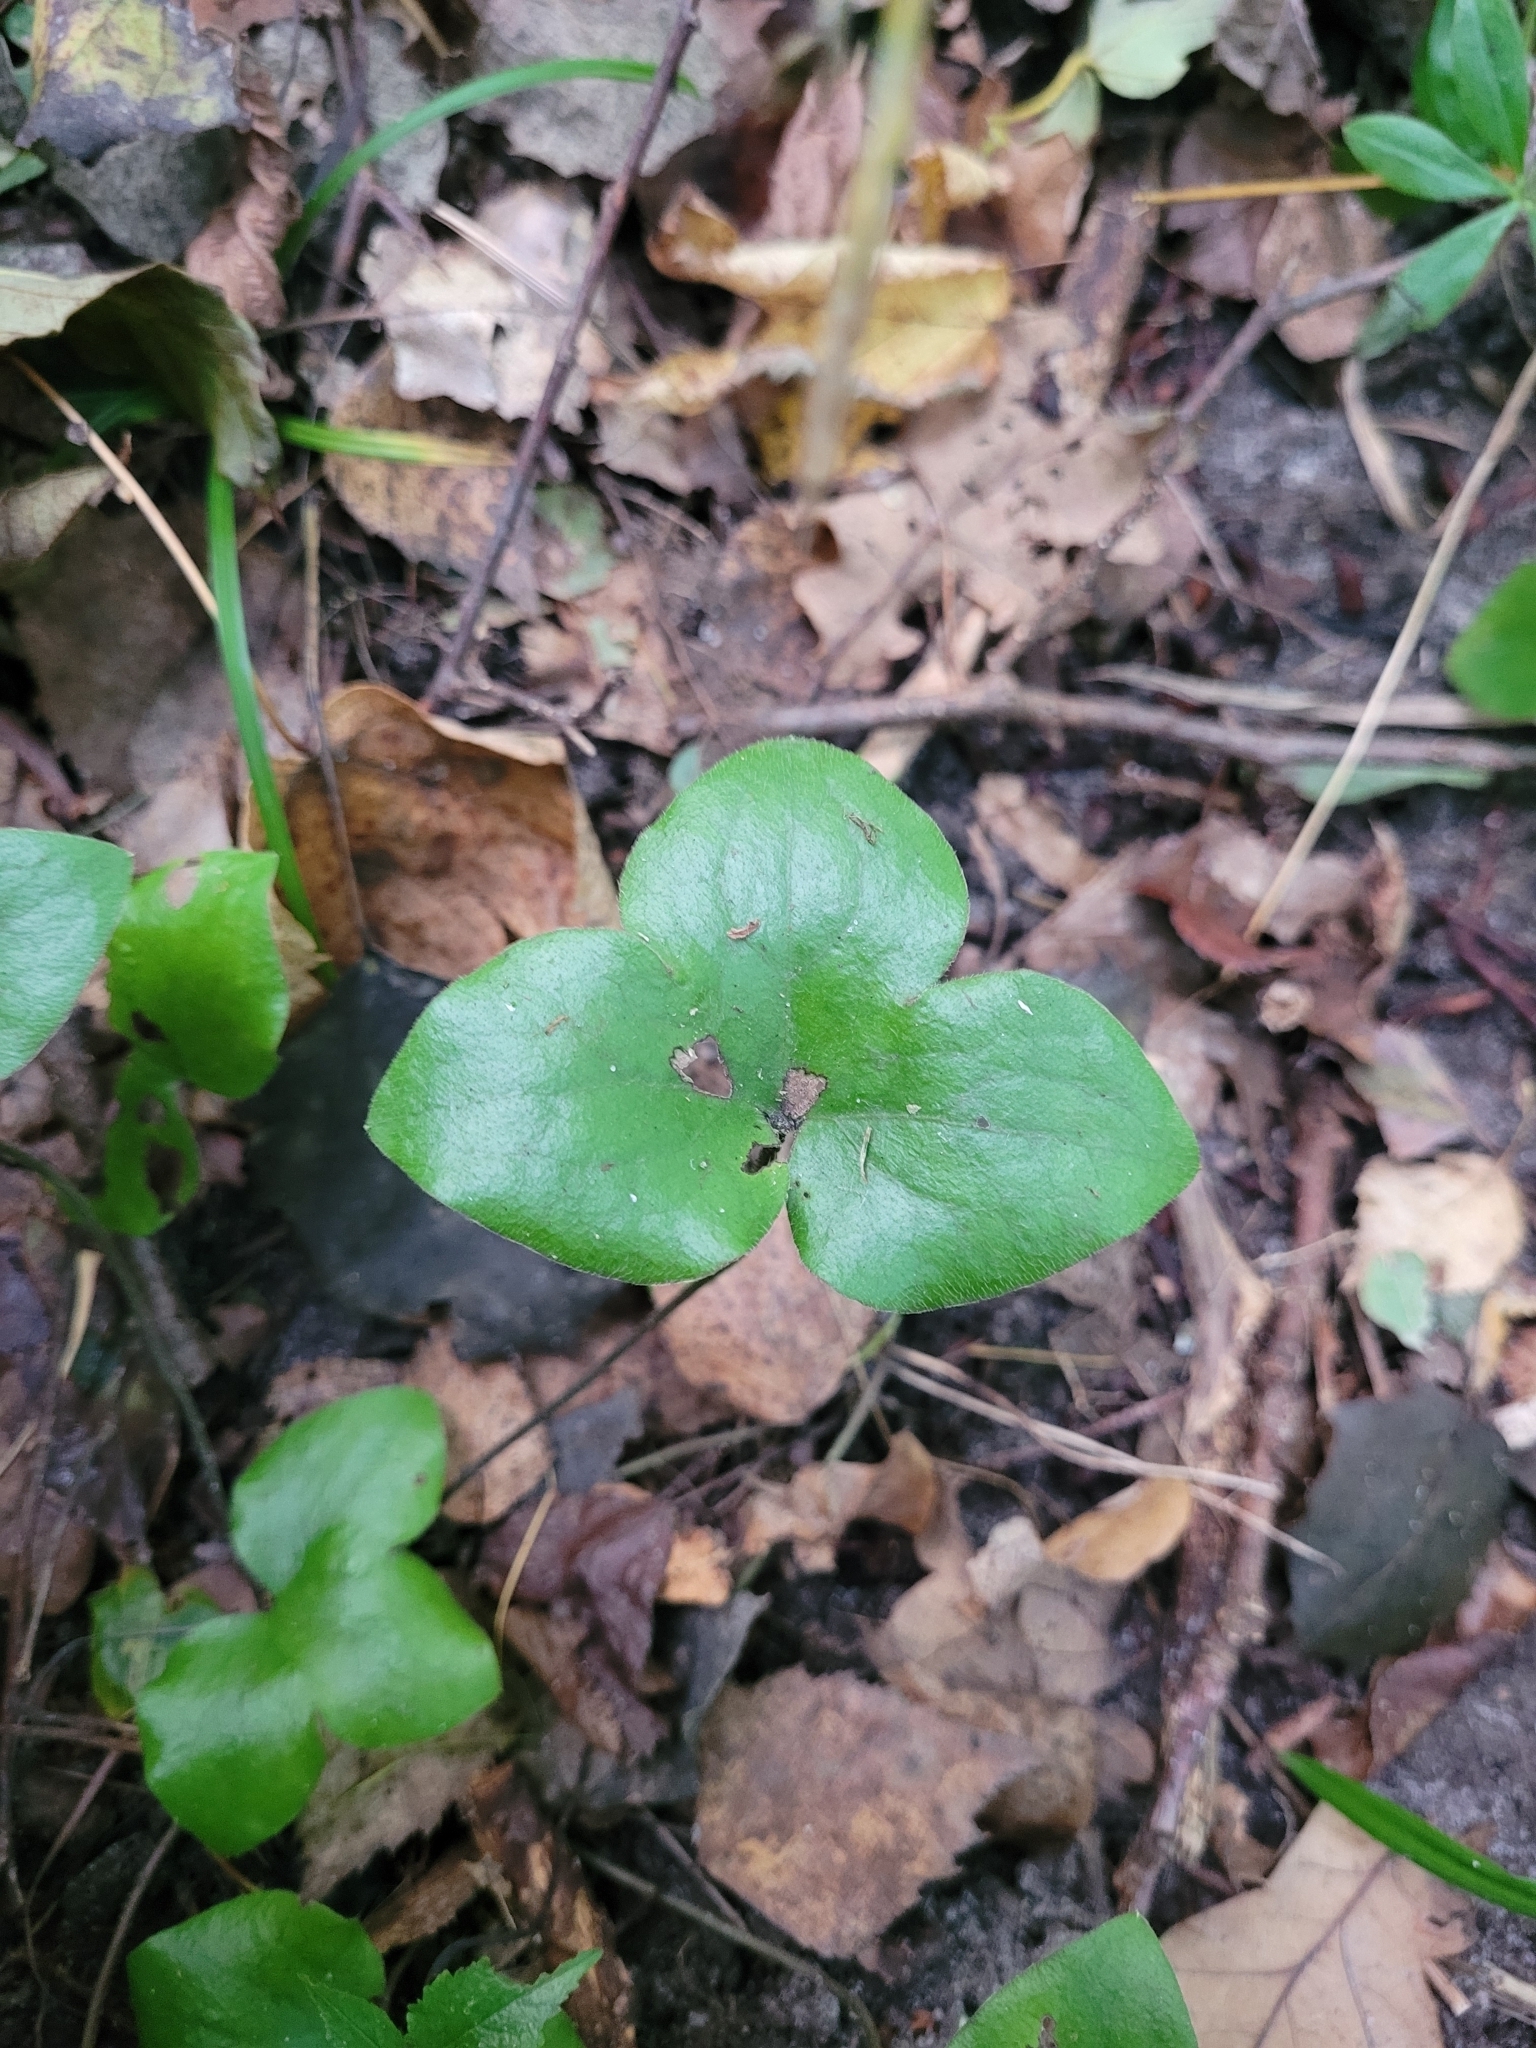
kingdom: Plantae
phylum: Tracheophyta
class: Magnoliopsida
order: Ranunculales
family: Ranunculaceae
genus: Hepatica
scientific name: Hepatica nobilis
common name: Liverleaf
